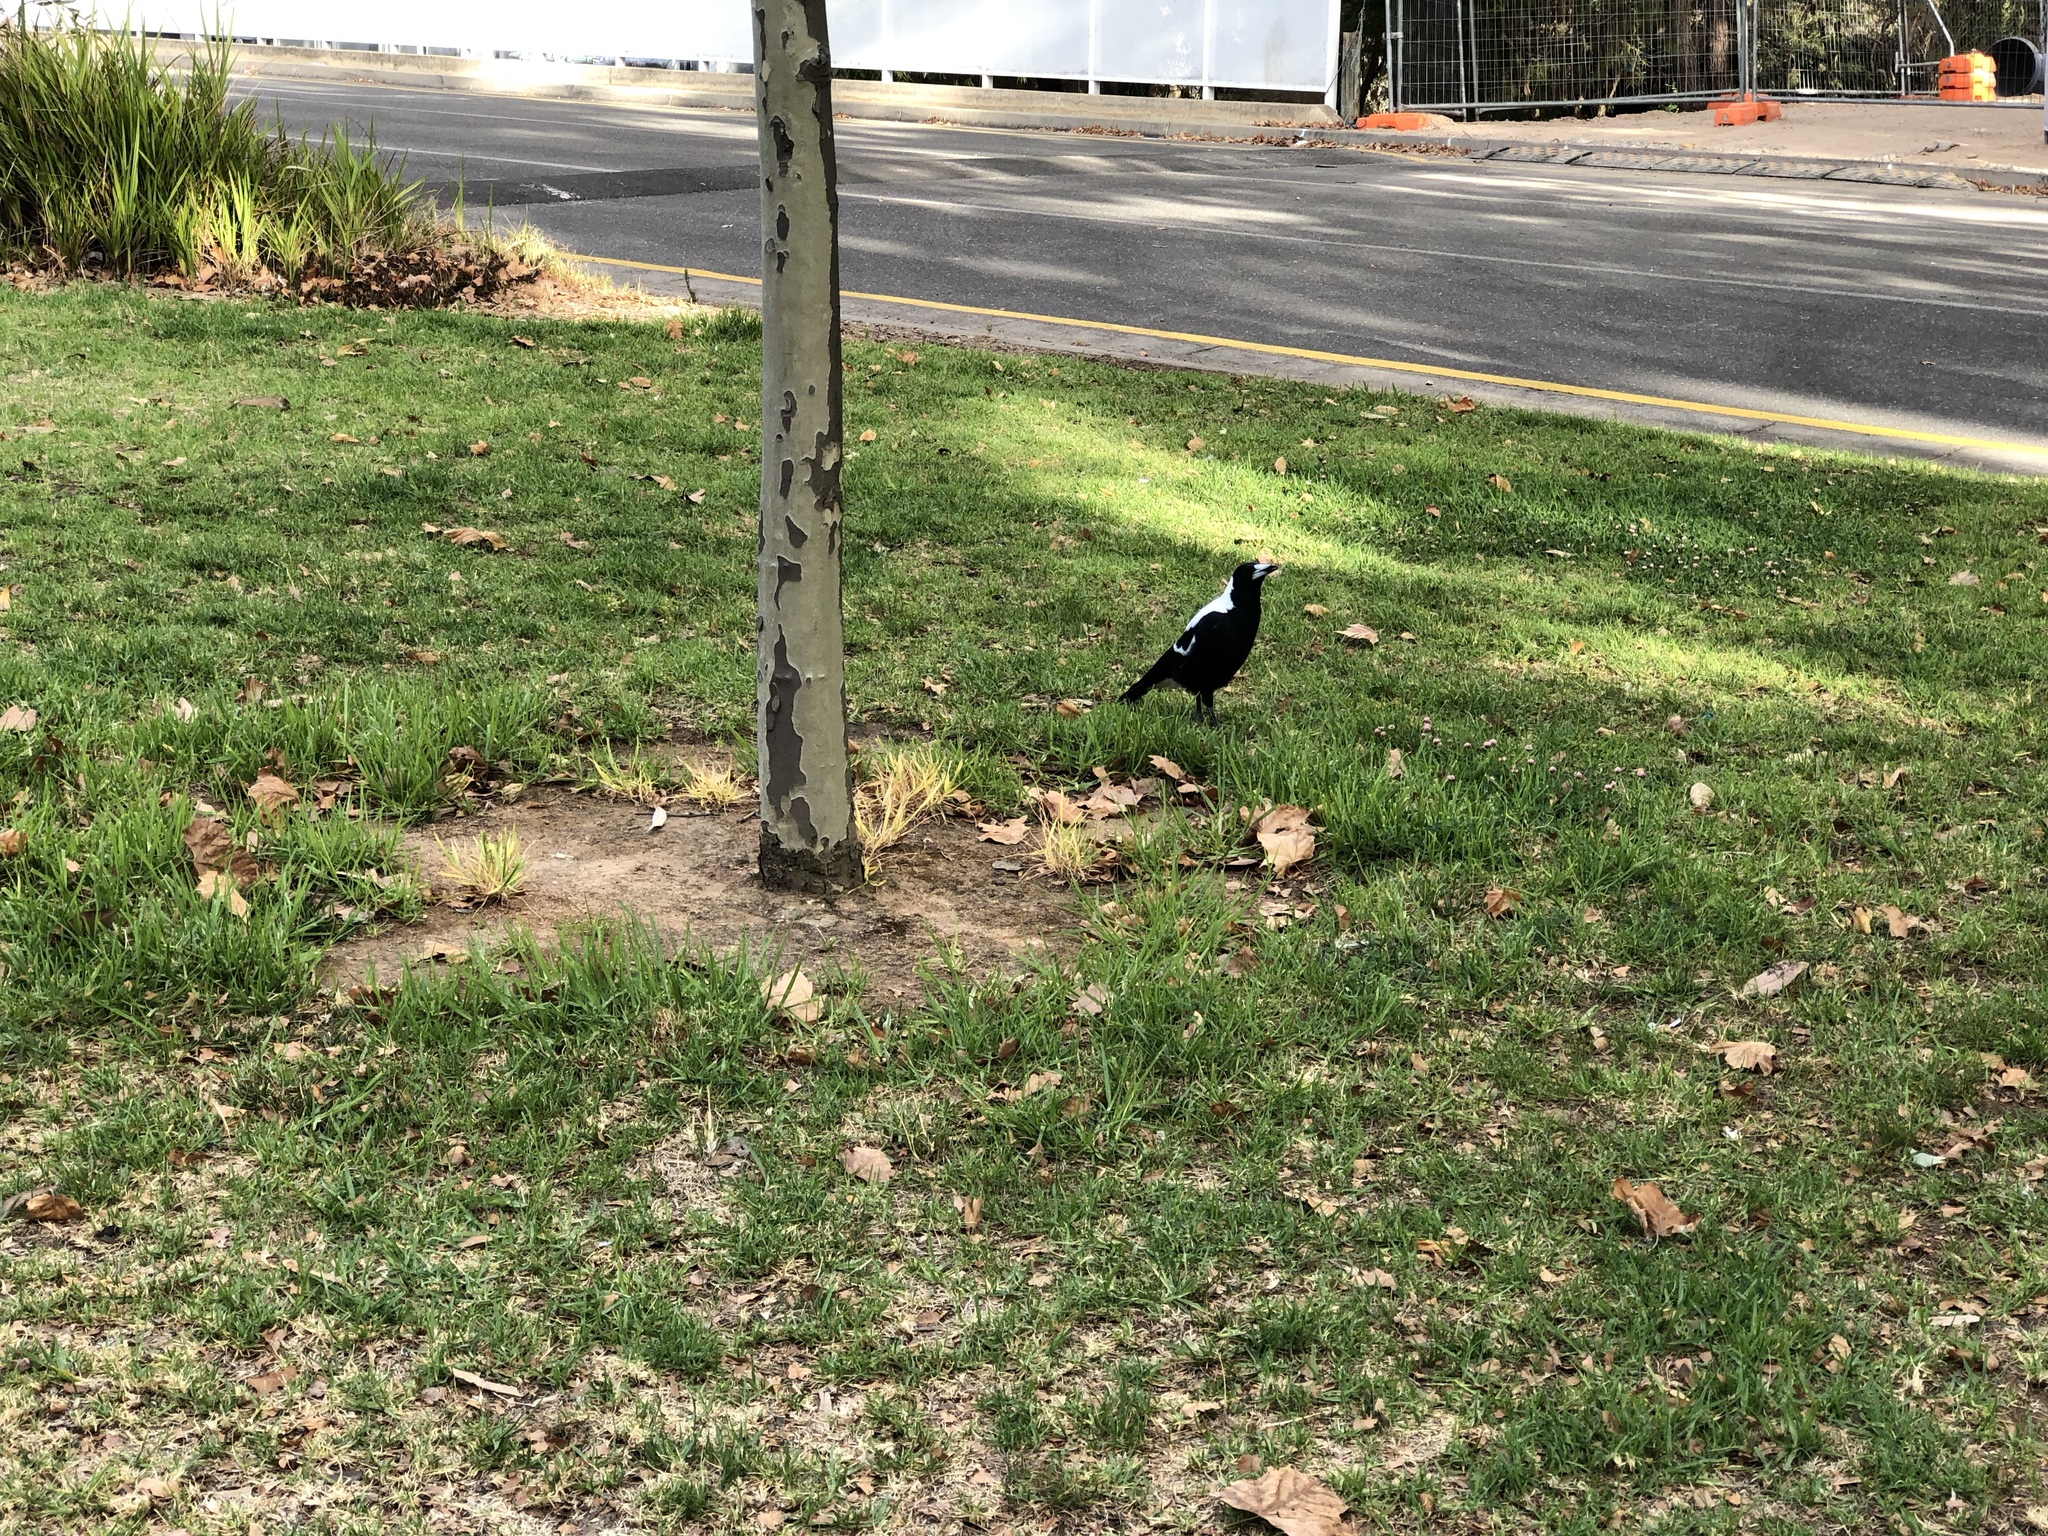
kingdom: Animalia
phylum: Chordata
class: Aves
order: Passeriformes
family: Cracticidae
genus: Gymnorhina
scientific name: Gymnorhina tibicen
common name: Australian magpie
